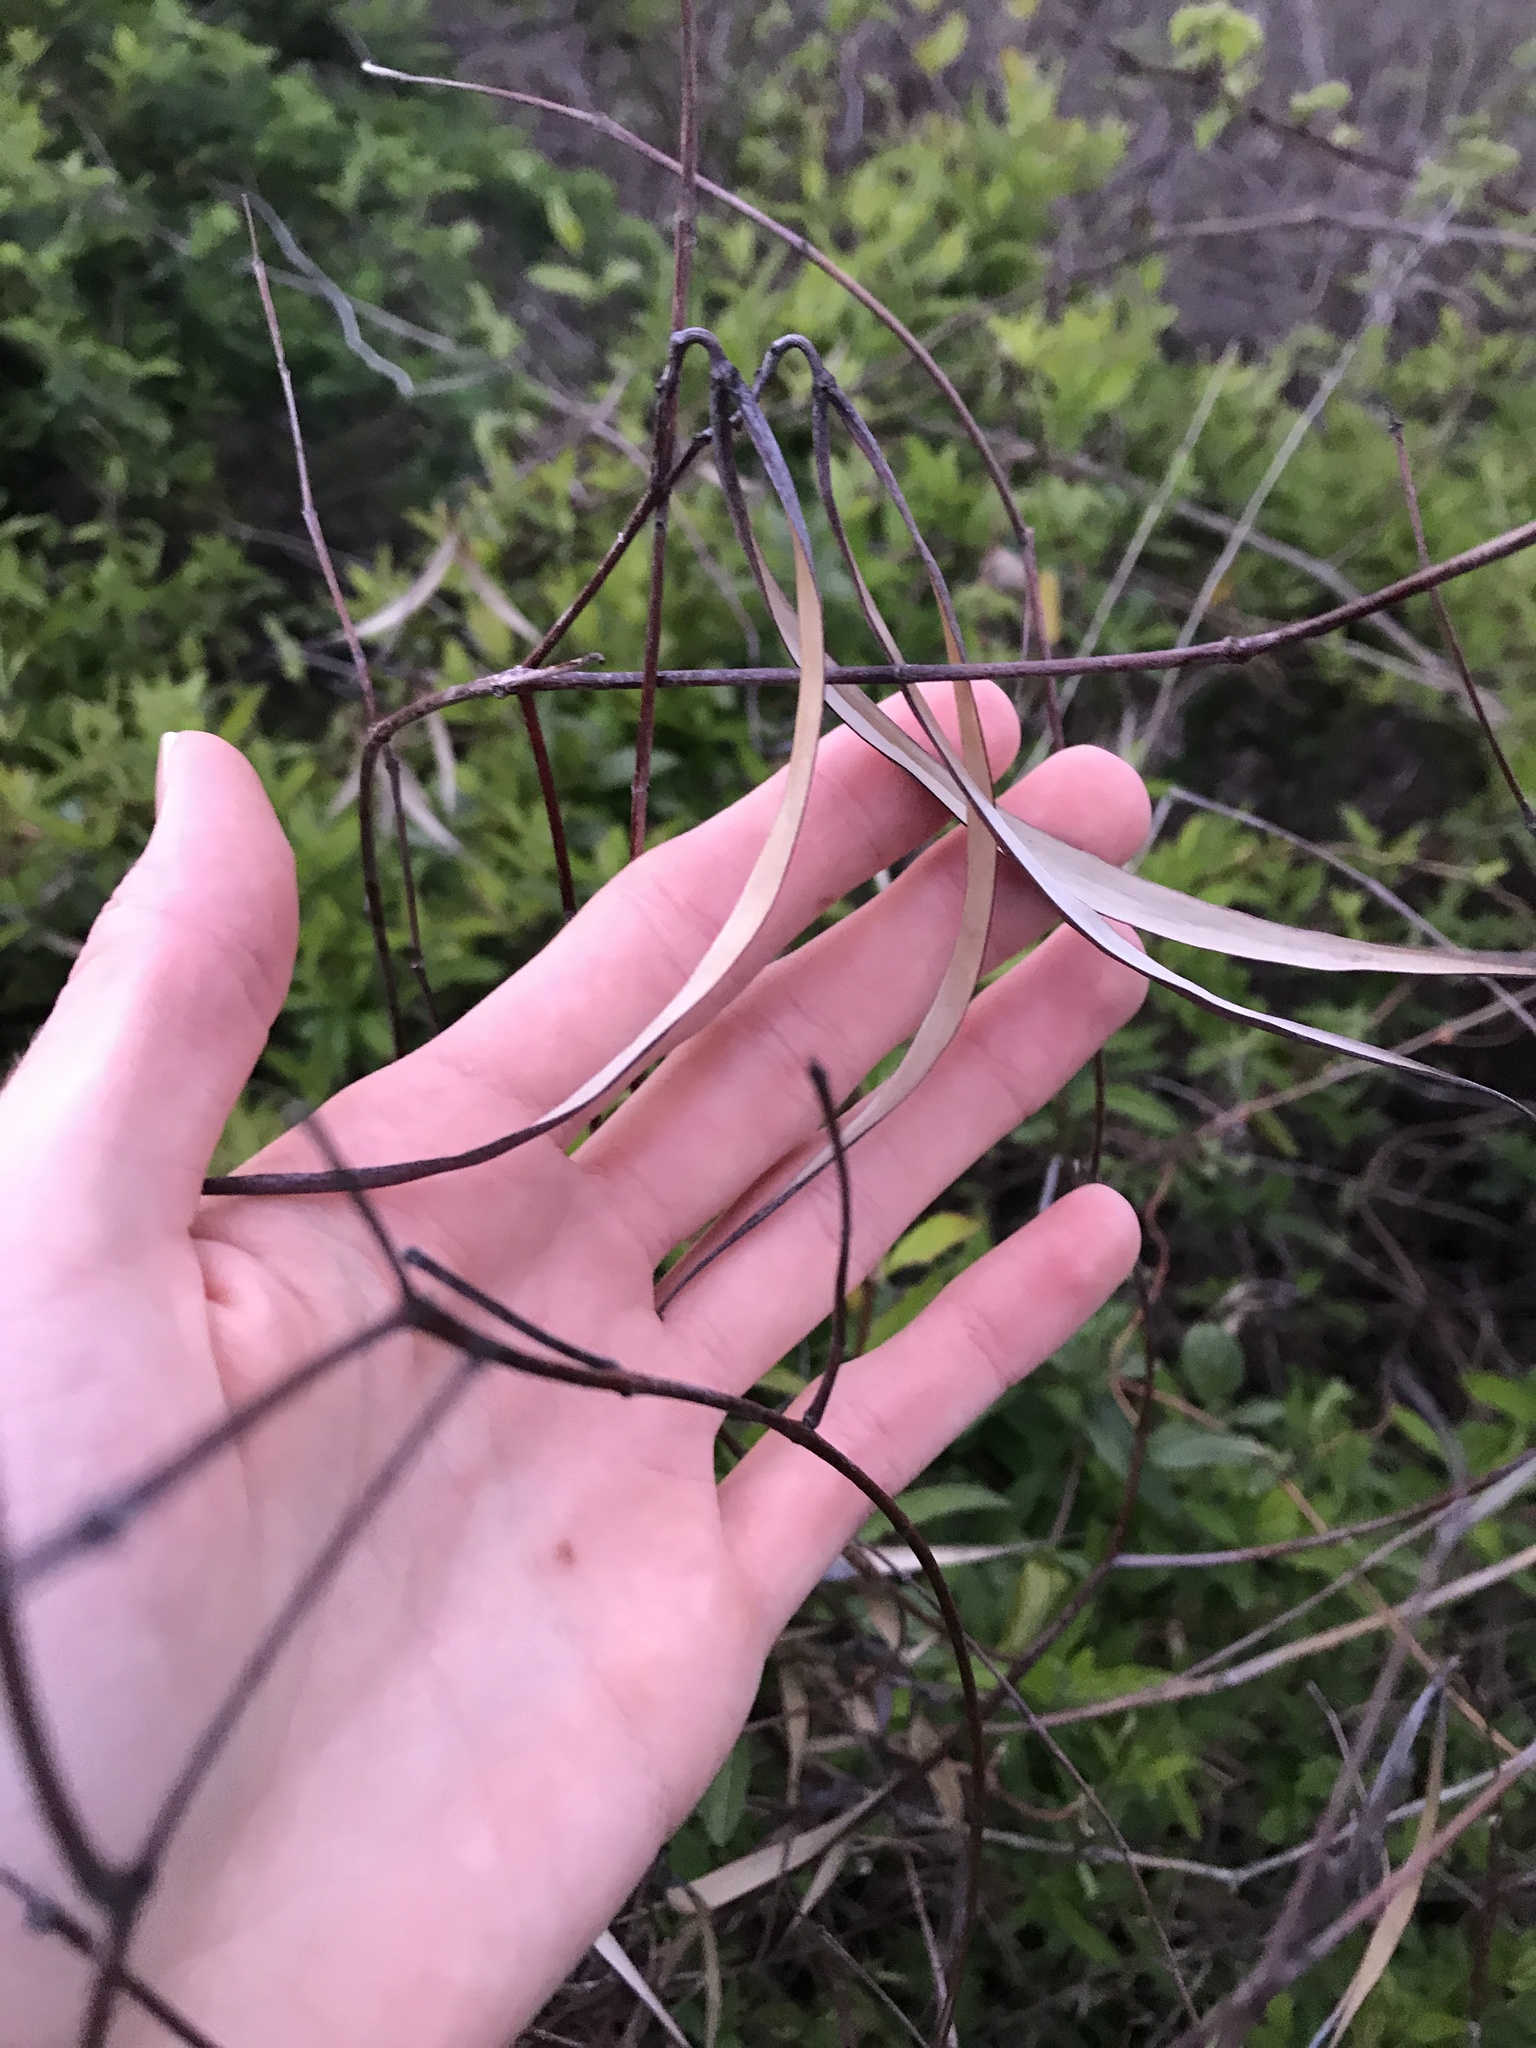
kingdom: Plantae
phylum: Tracheophyta
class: Magnoliopsida
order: Gentianales
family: Apocynaceae
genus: Apocynum
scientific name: Apocynum cannabinum
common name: Hemp dogbane
